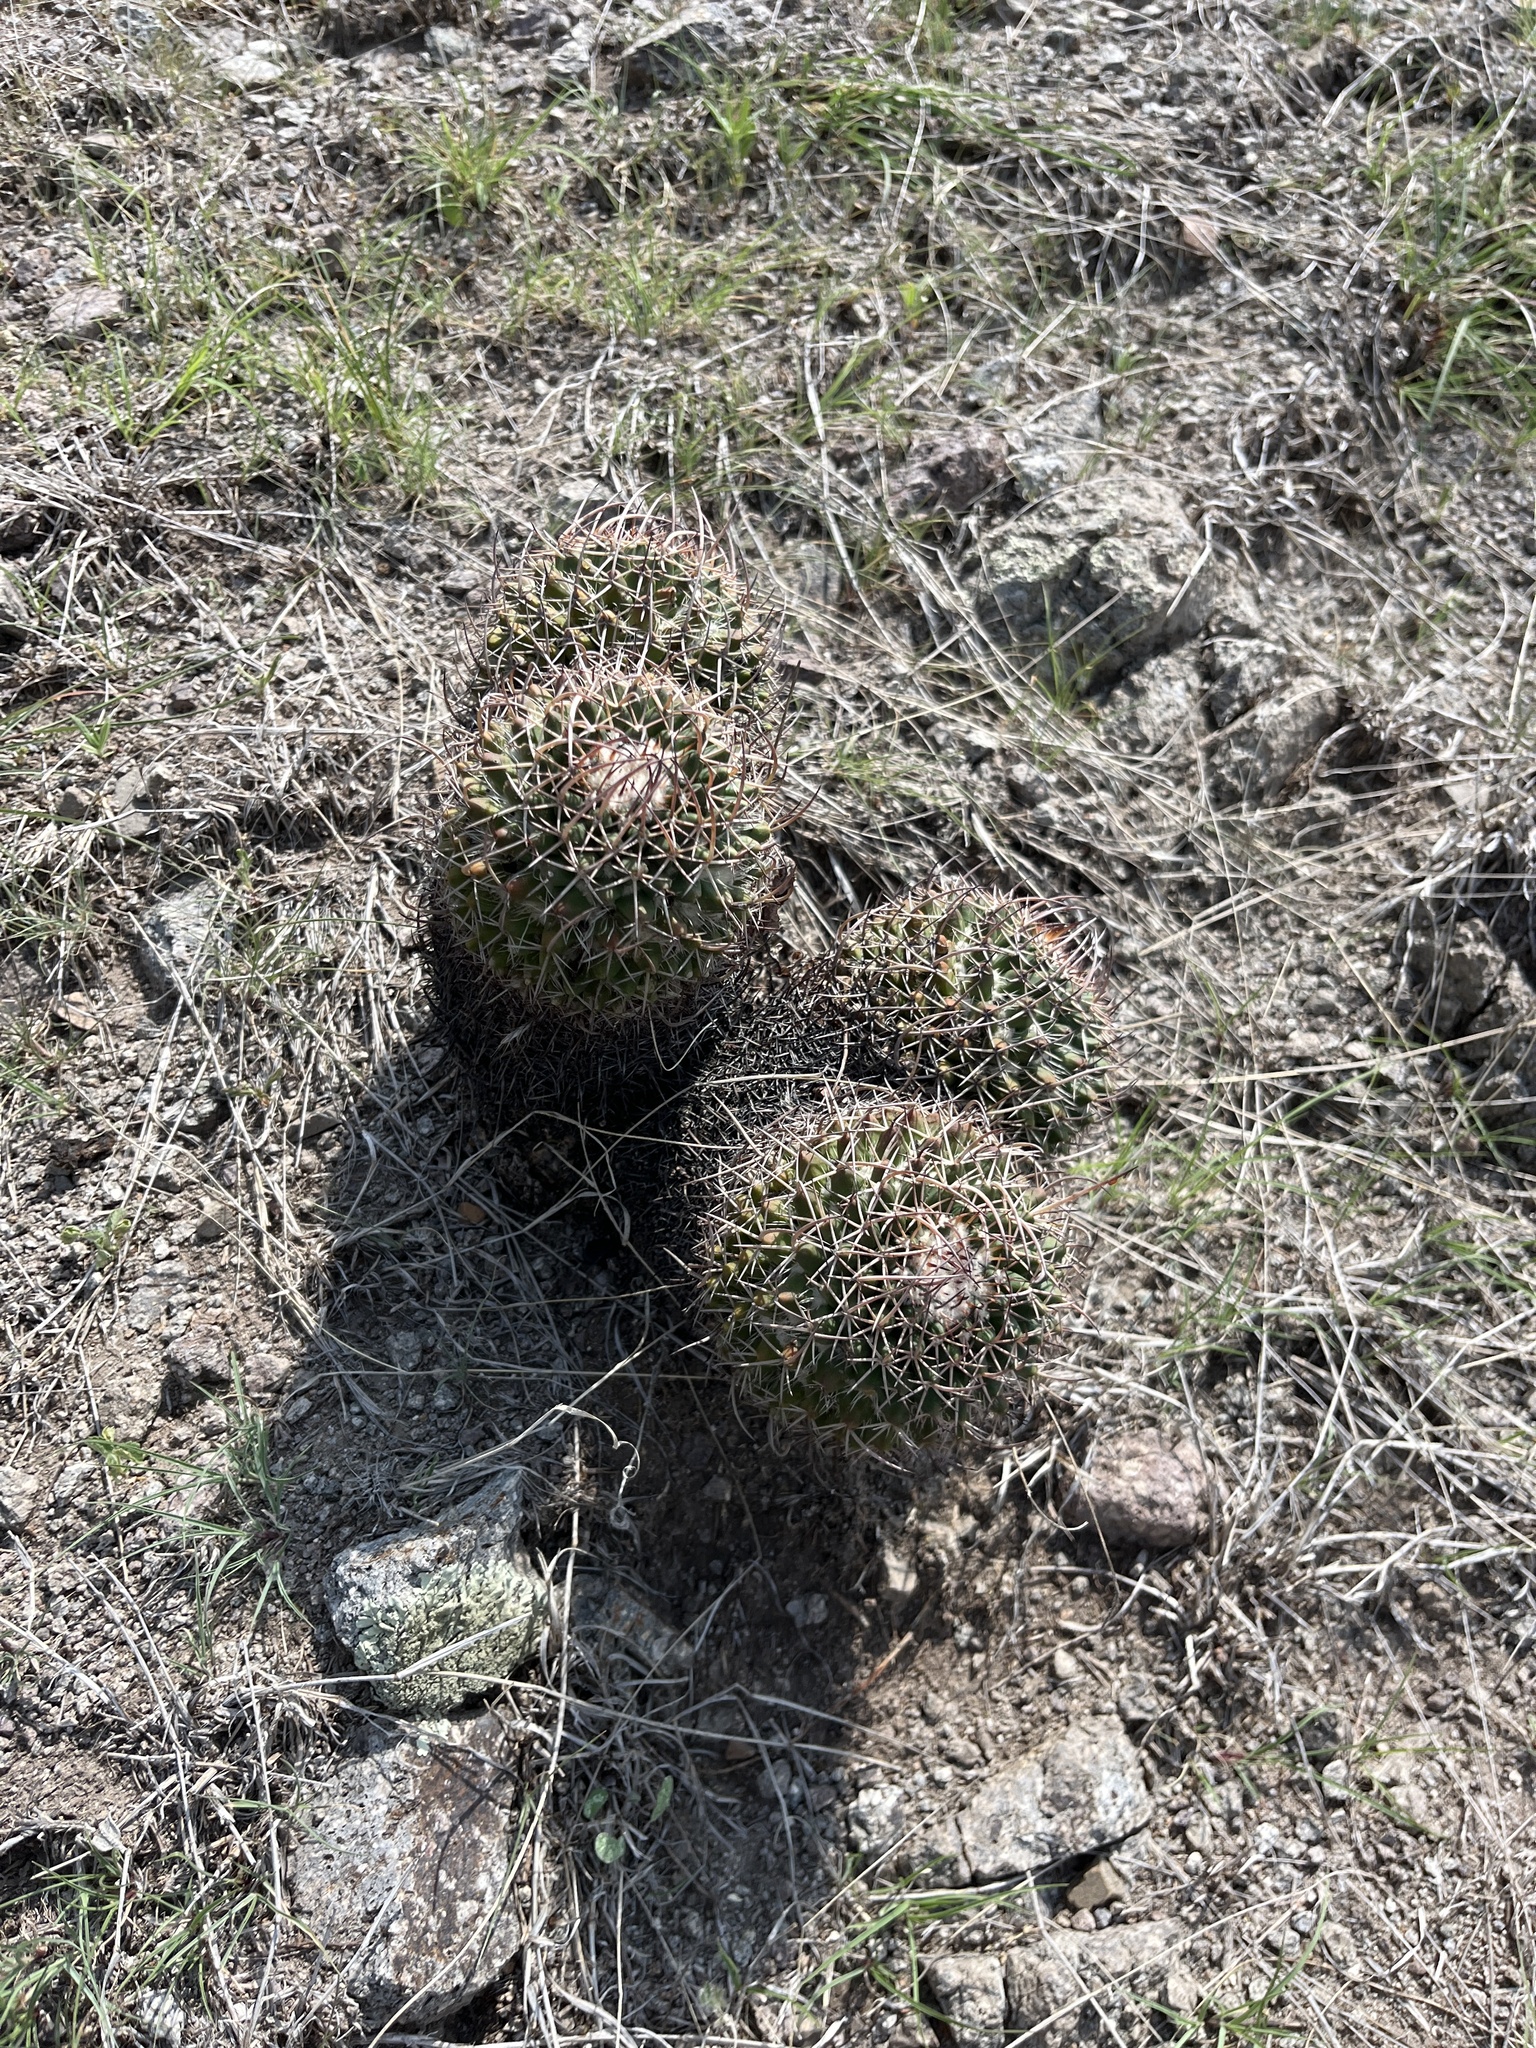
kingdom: Plantae
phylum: Tracheophyta
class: Magnoliopsida
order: Caryophyllales
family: Cactaceae
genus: Mammillaria
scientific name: Mammillaria karwinskiana
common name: Royal cross
